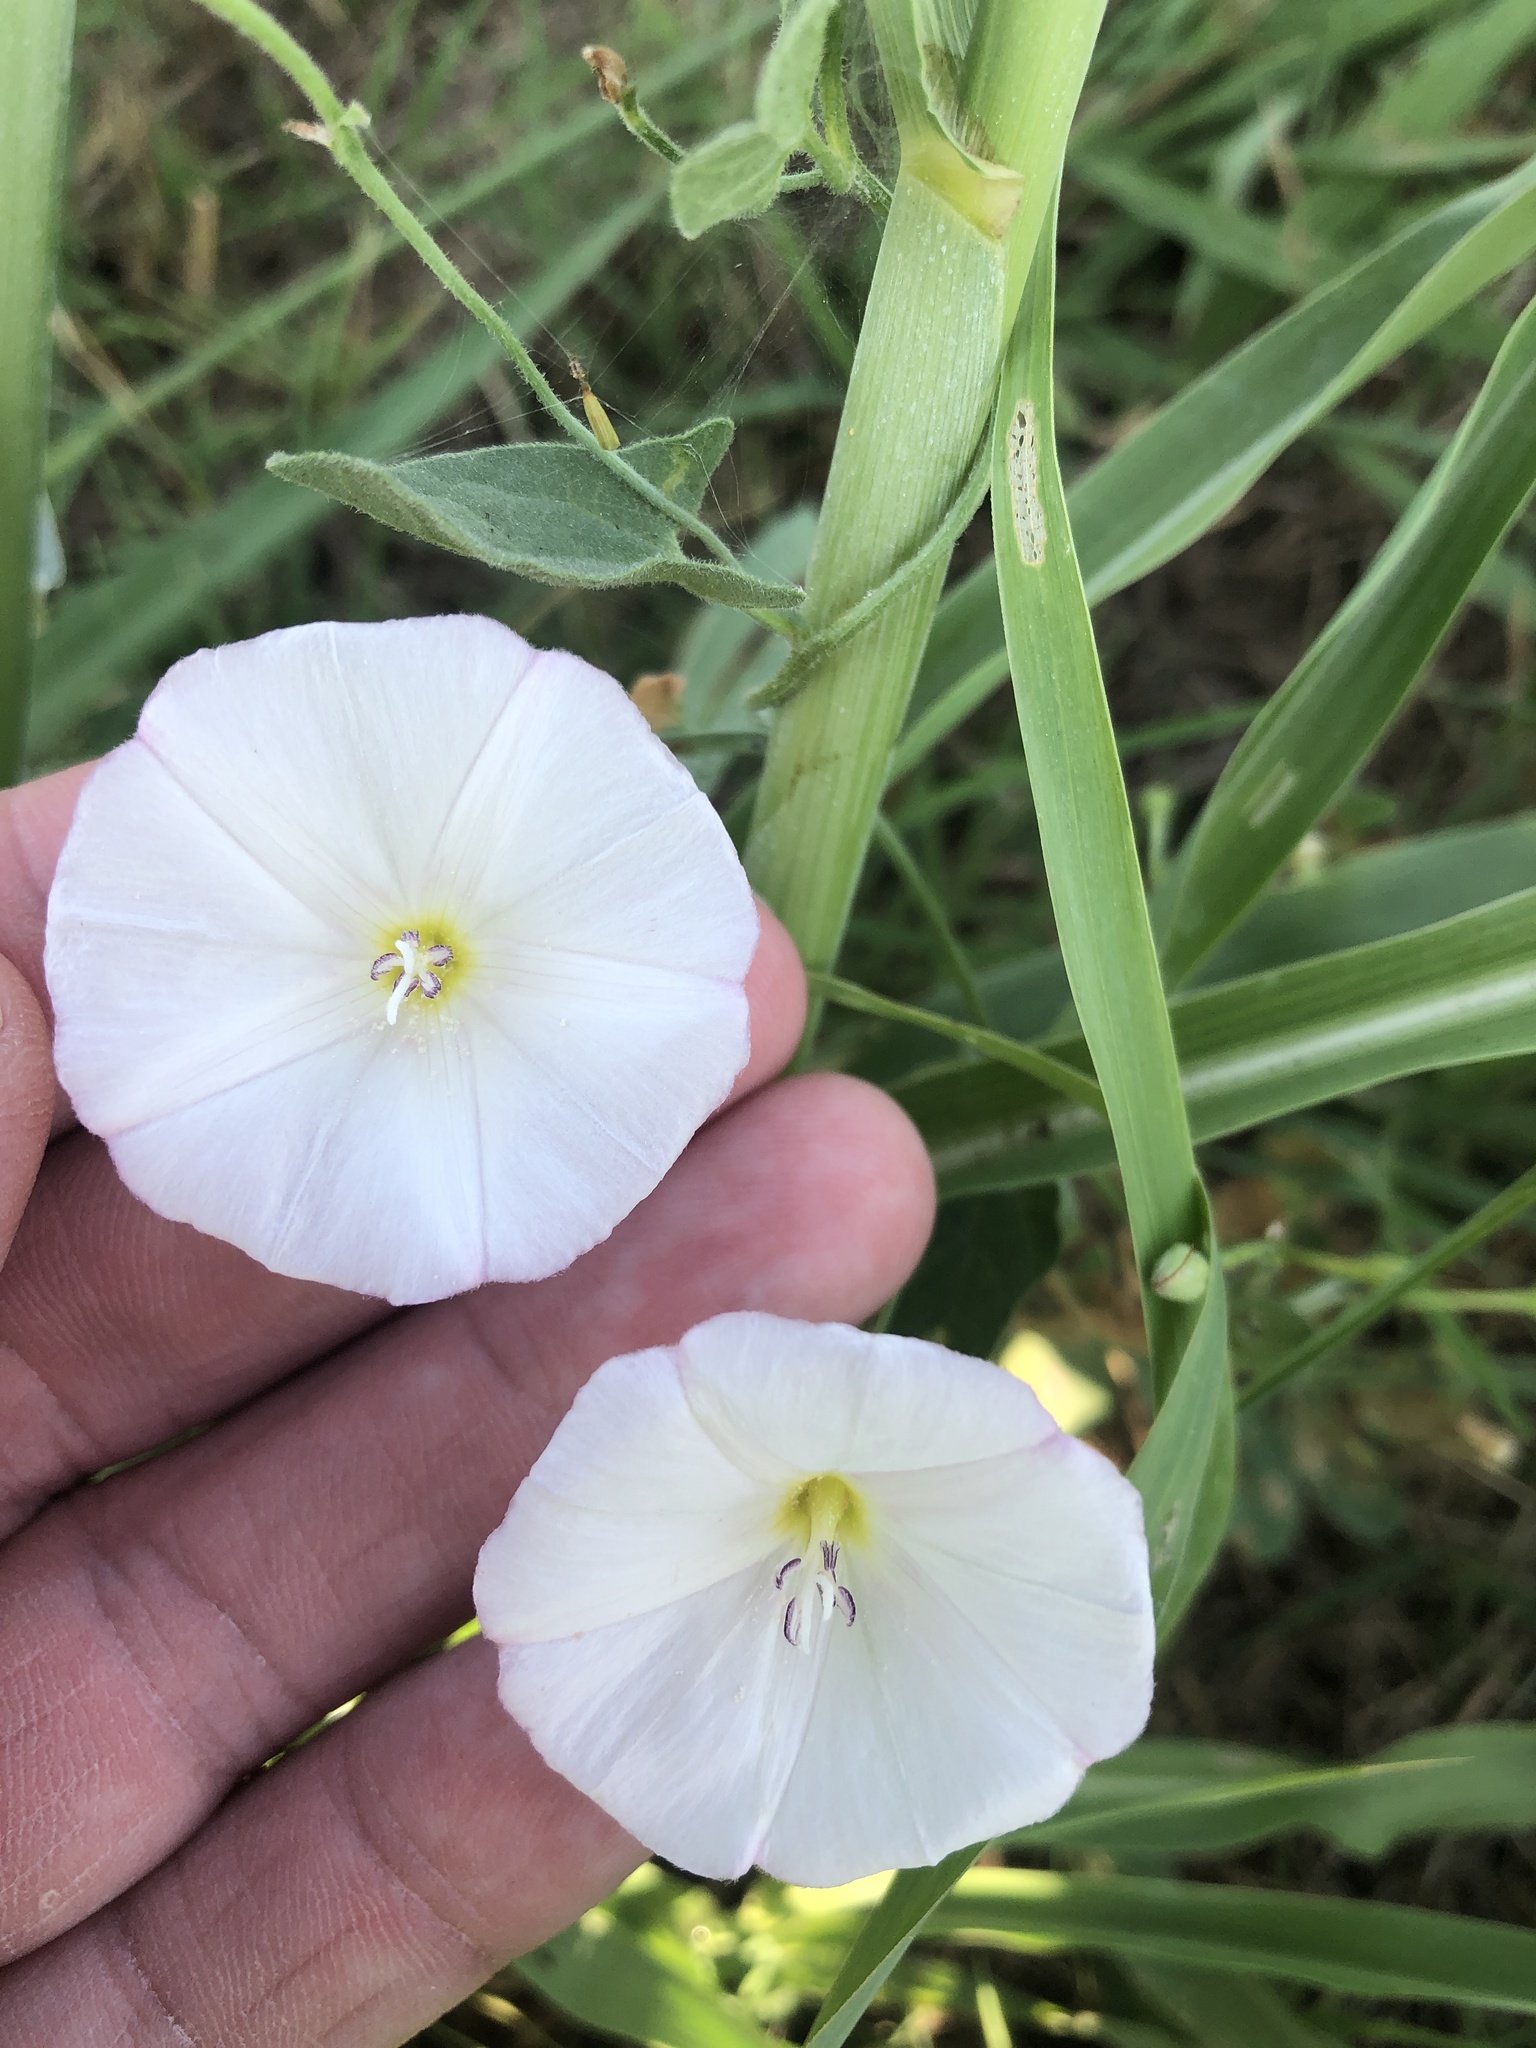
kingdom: Plantae
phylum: Tracheophyta
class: Magnoliopsida
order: Solanales
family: Convolvulaceae
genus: Convolvulus
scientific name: Convolvulus arvensis
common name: Field bindweed
